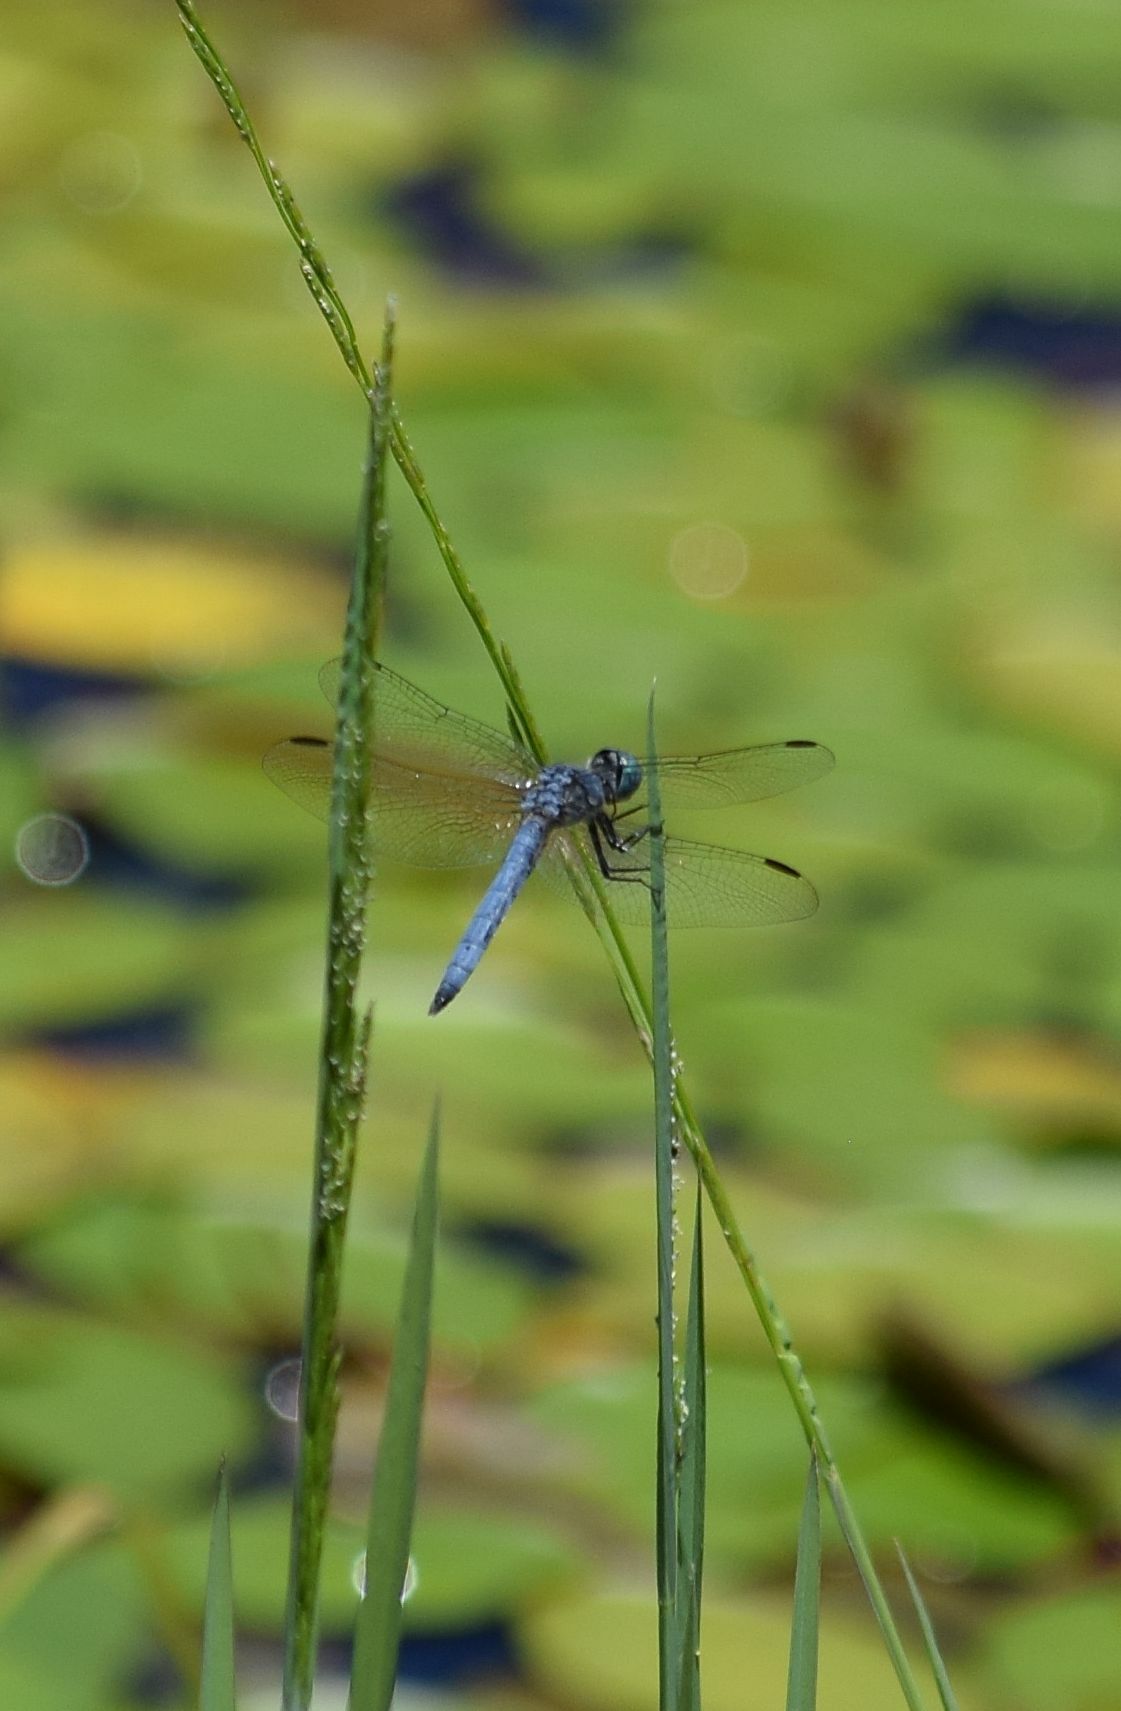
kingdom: Animalia
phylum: Arthropoda
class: Insecta
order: Odonata
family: Libellulidae
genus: Pachydiplax
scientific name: Pachydiplax longipennis
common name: Blue dasher
